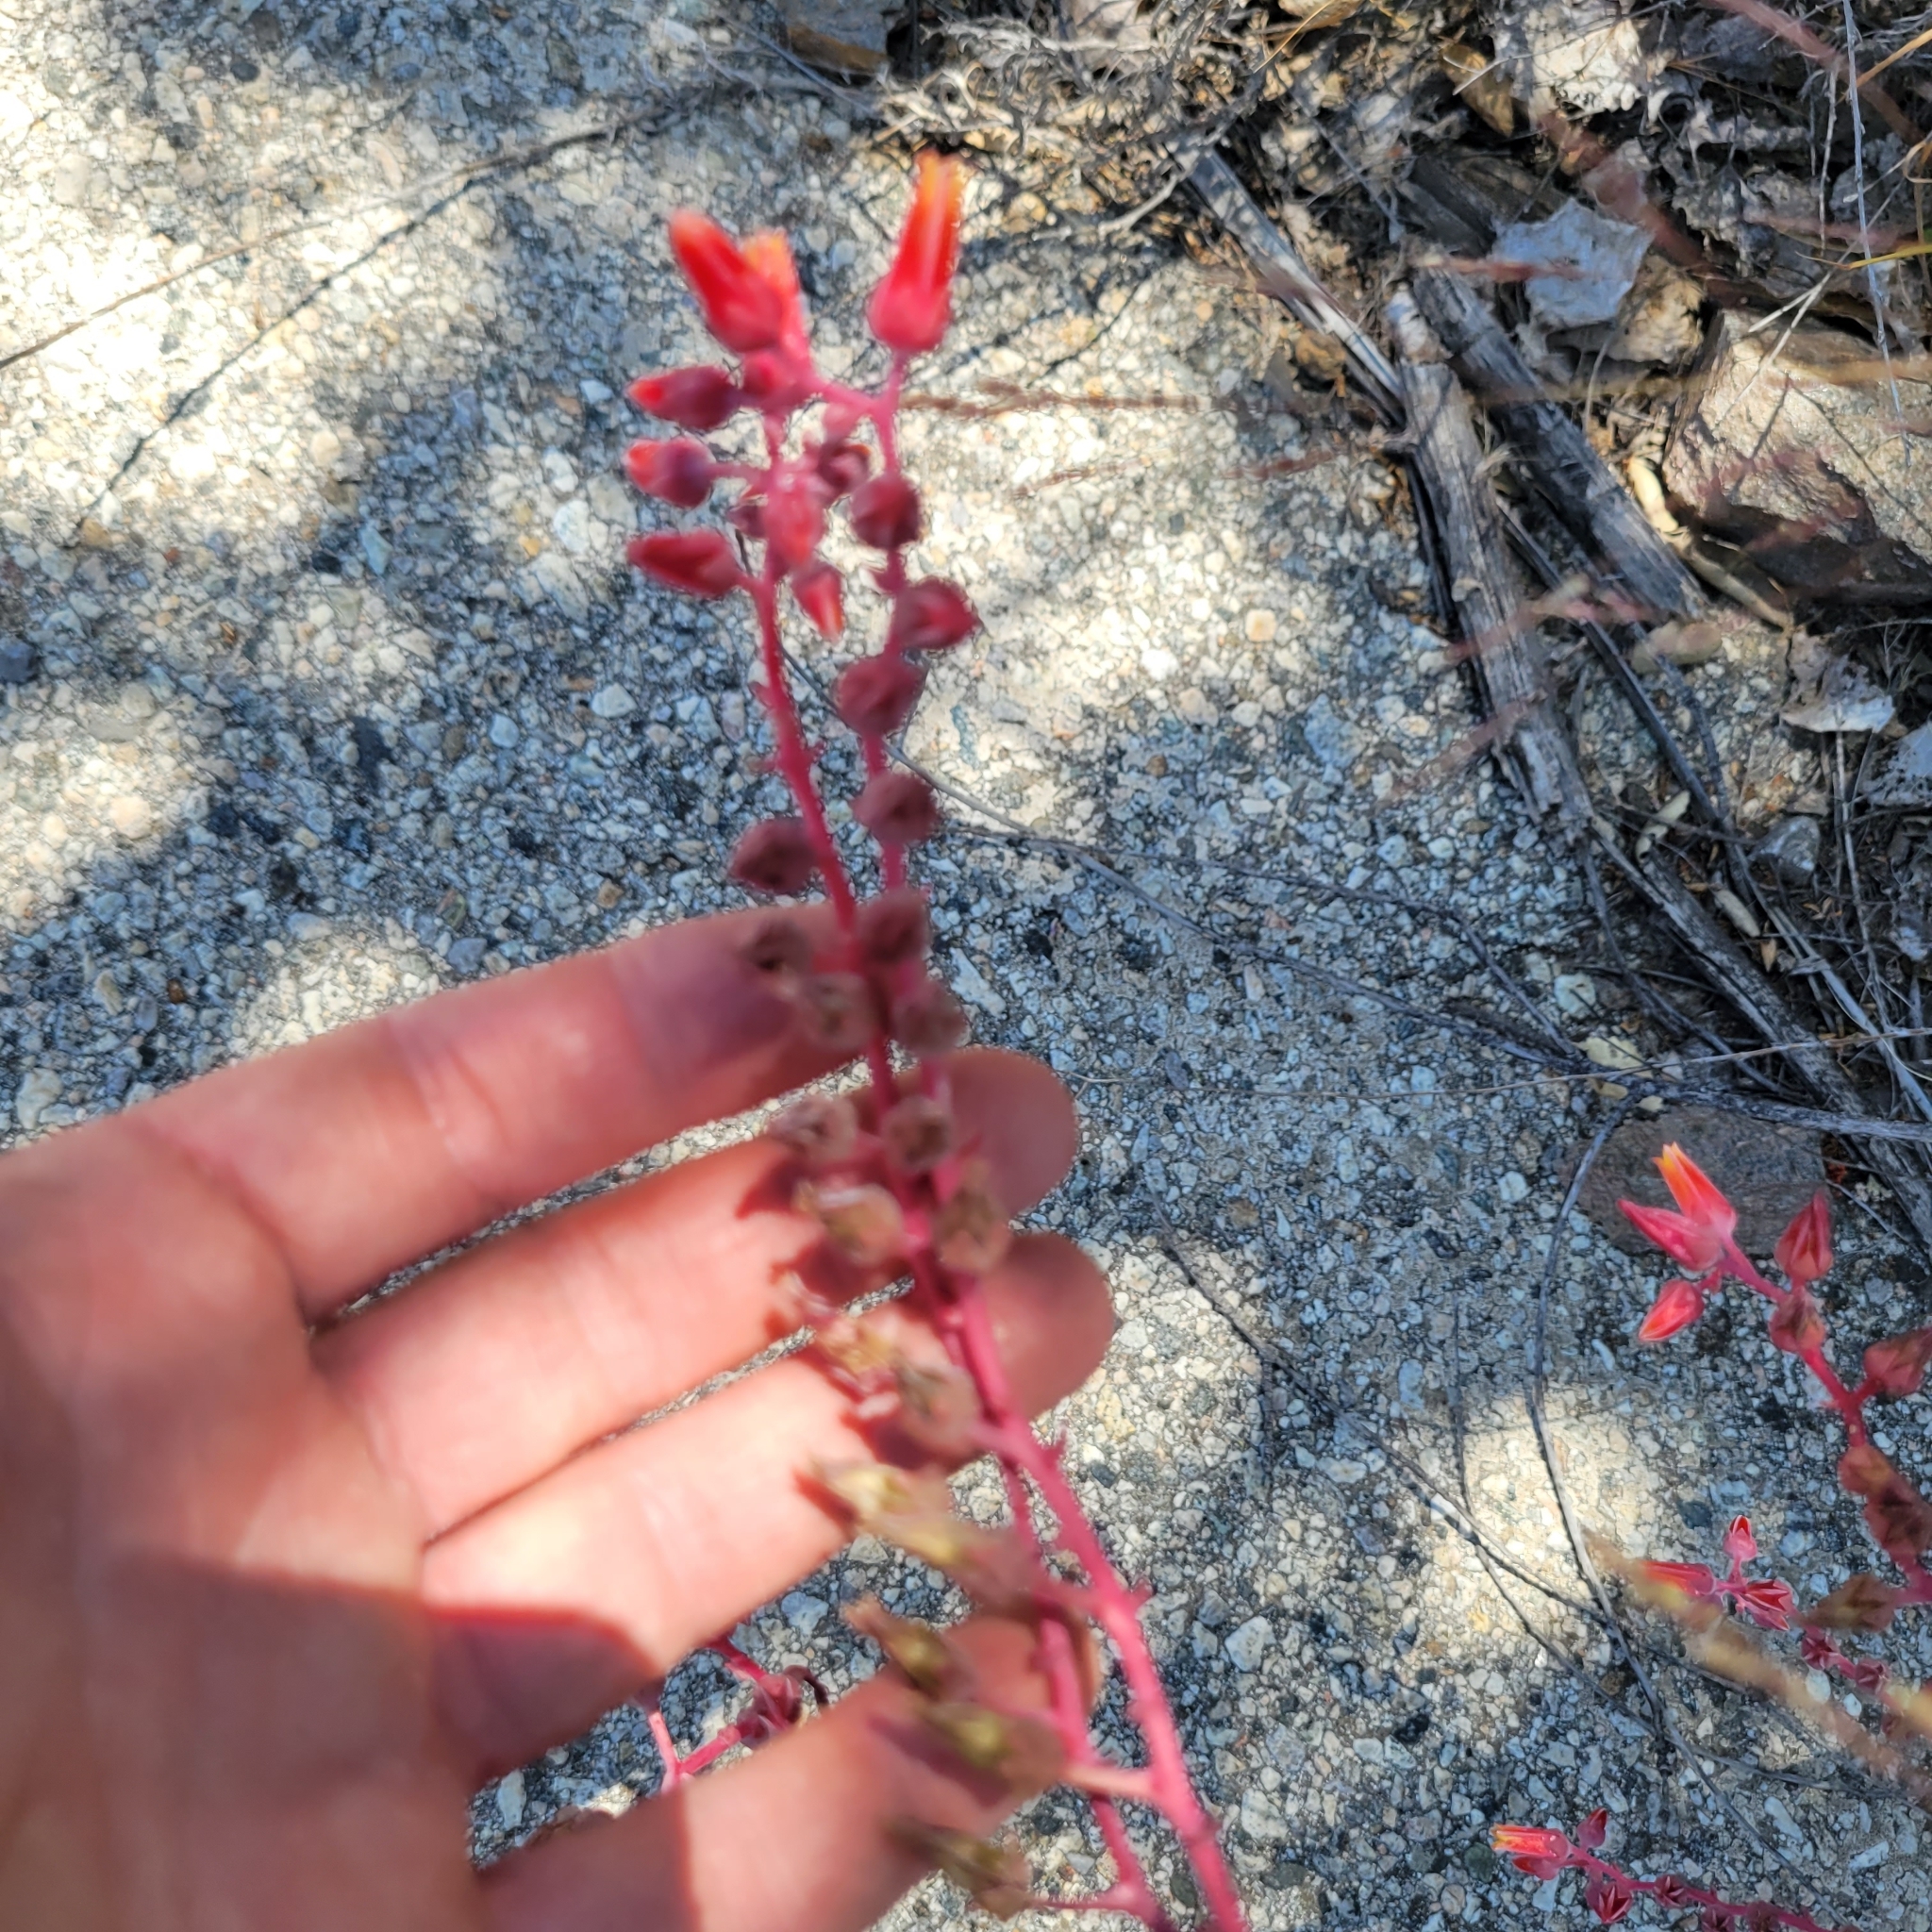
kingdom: Plantae
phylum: Tracheophyta
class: Magnoliopsida
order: Saxifragales
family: Crassulaceae
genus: Dudleya
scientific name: Dudleya lanceolata
